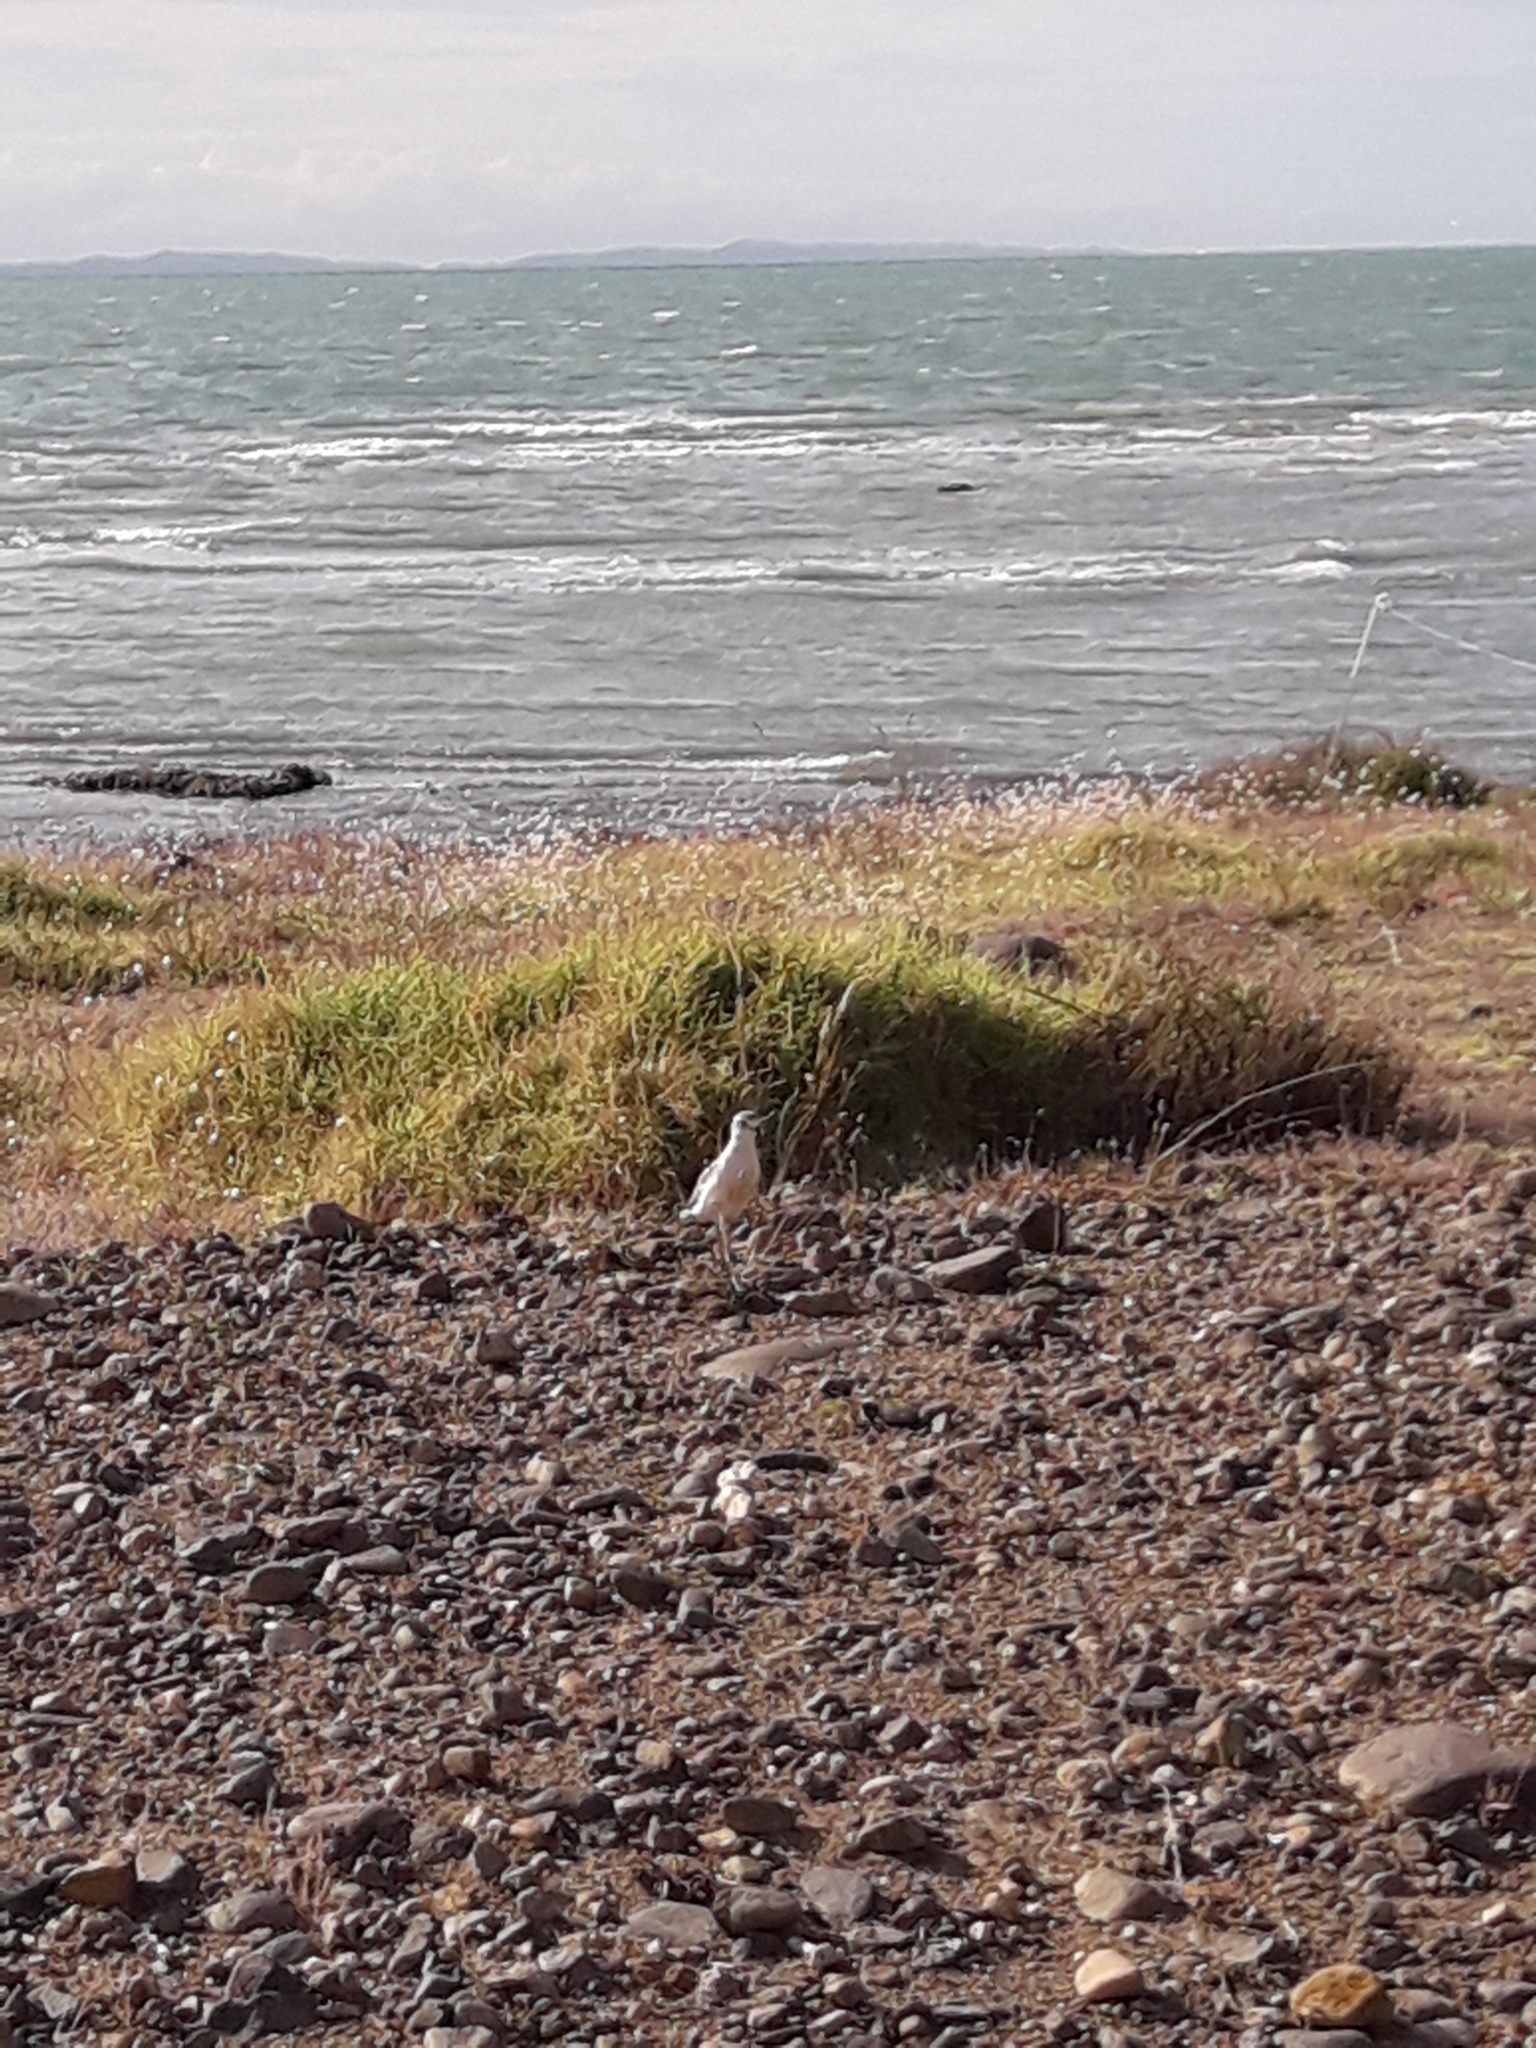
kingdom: Animalia
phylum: Chordata
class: Aves
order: Charadriiformes
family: Charadriidae
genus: Anarhynchus
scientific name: Anarhynchus
